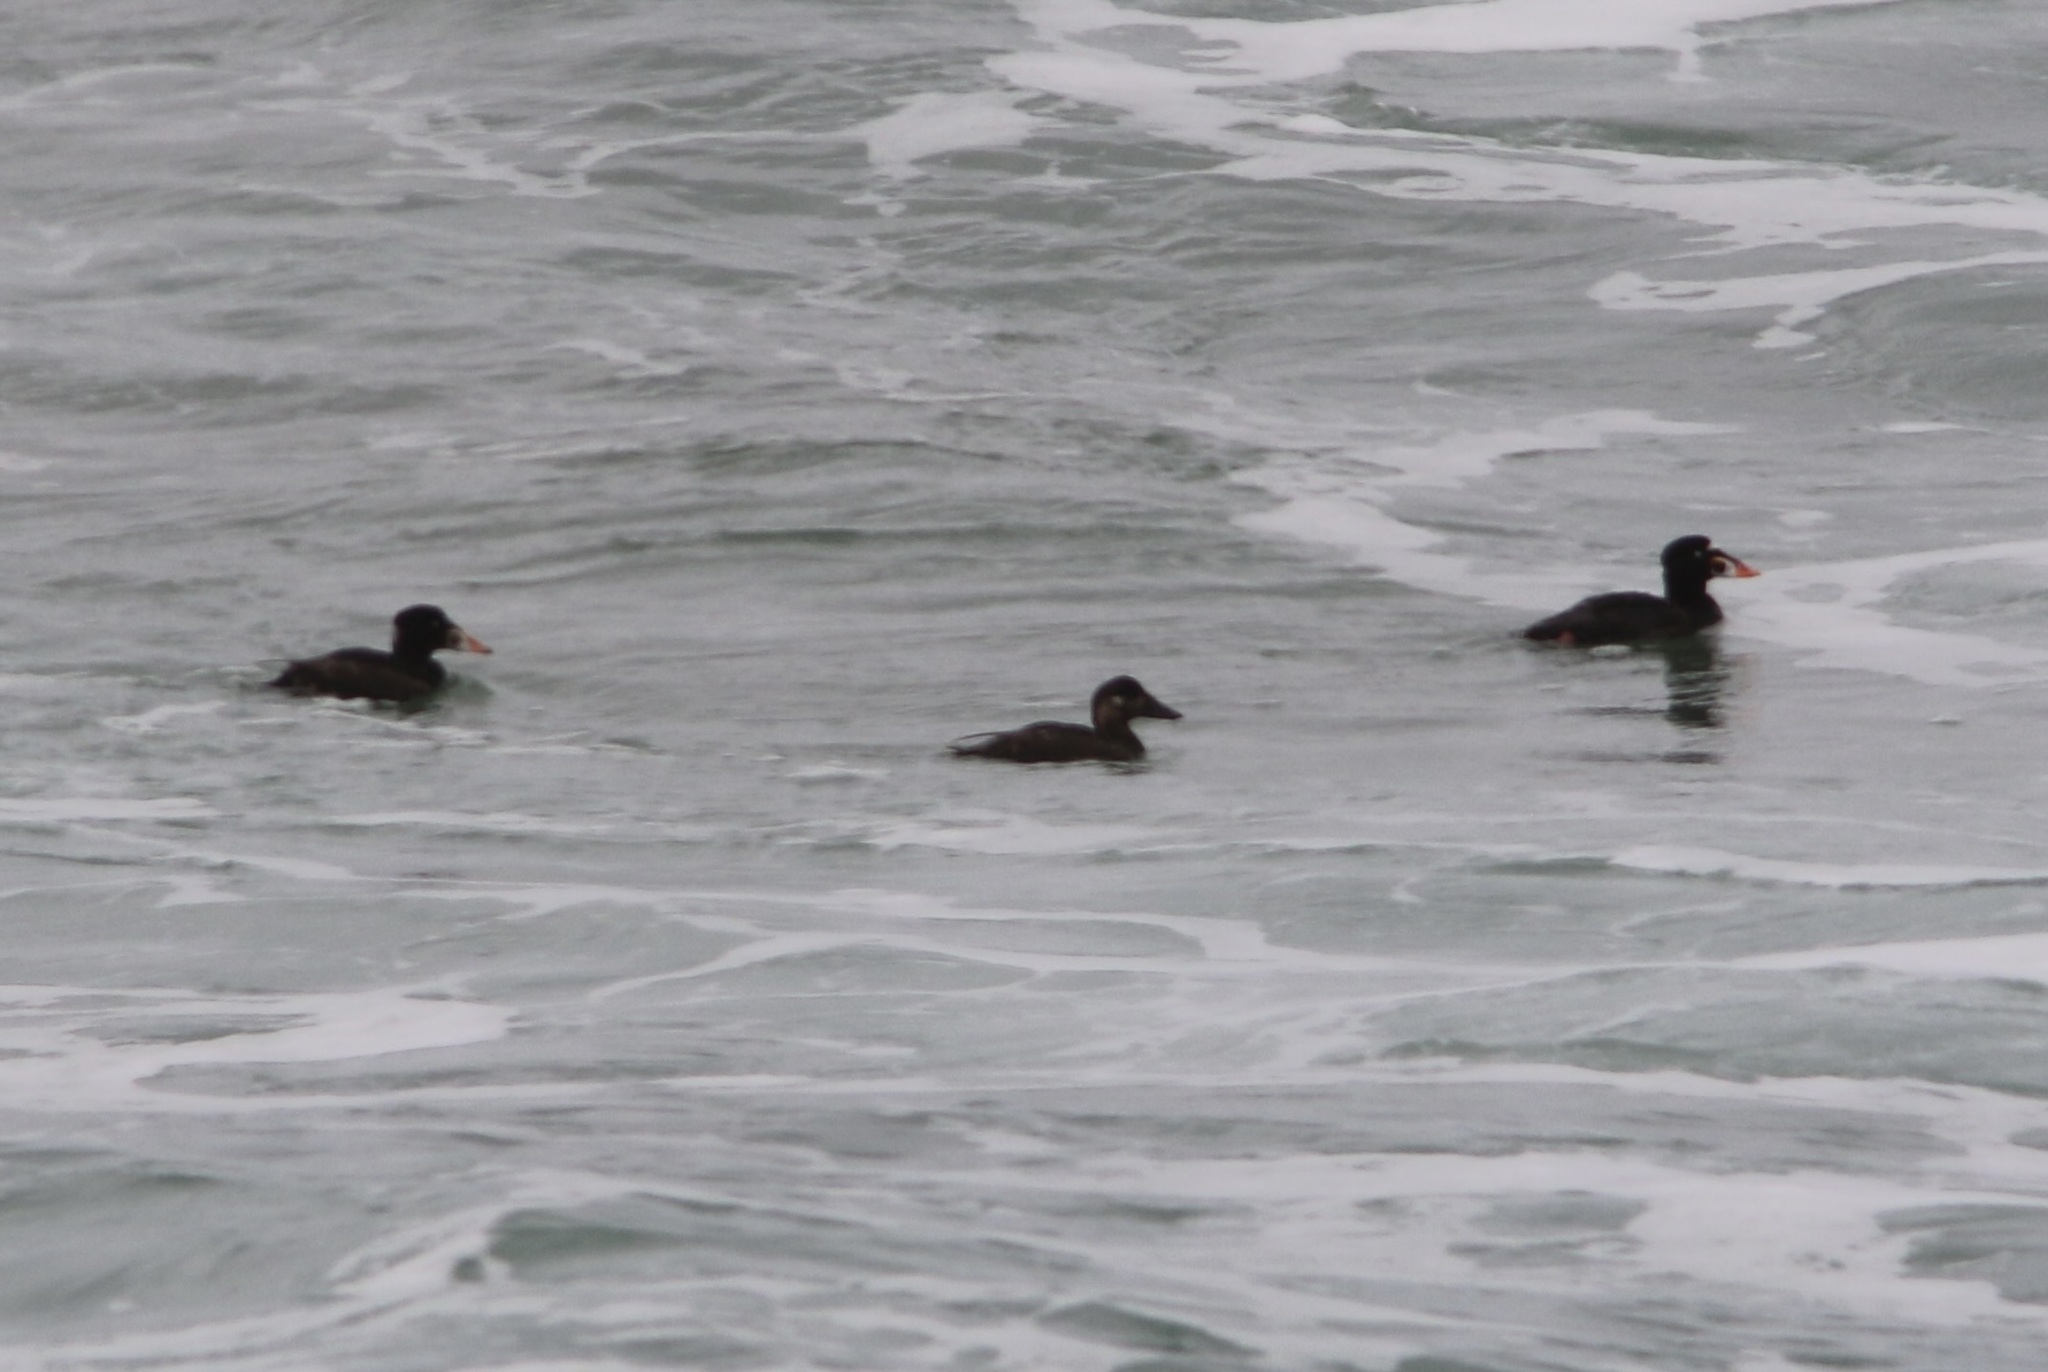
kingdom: Animalia
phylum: Chordata
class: Aves
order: Anseriformes
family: Anatidae
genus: Melanitta
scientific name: Melanitta perspicillata
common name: Surf scoter
